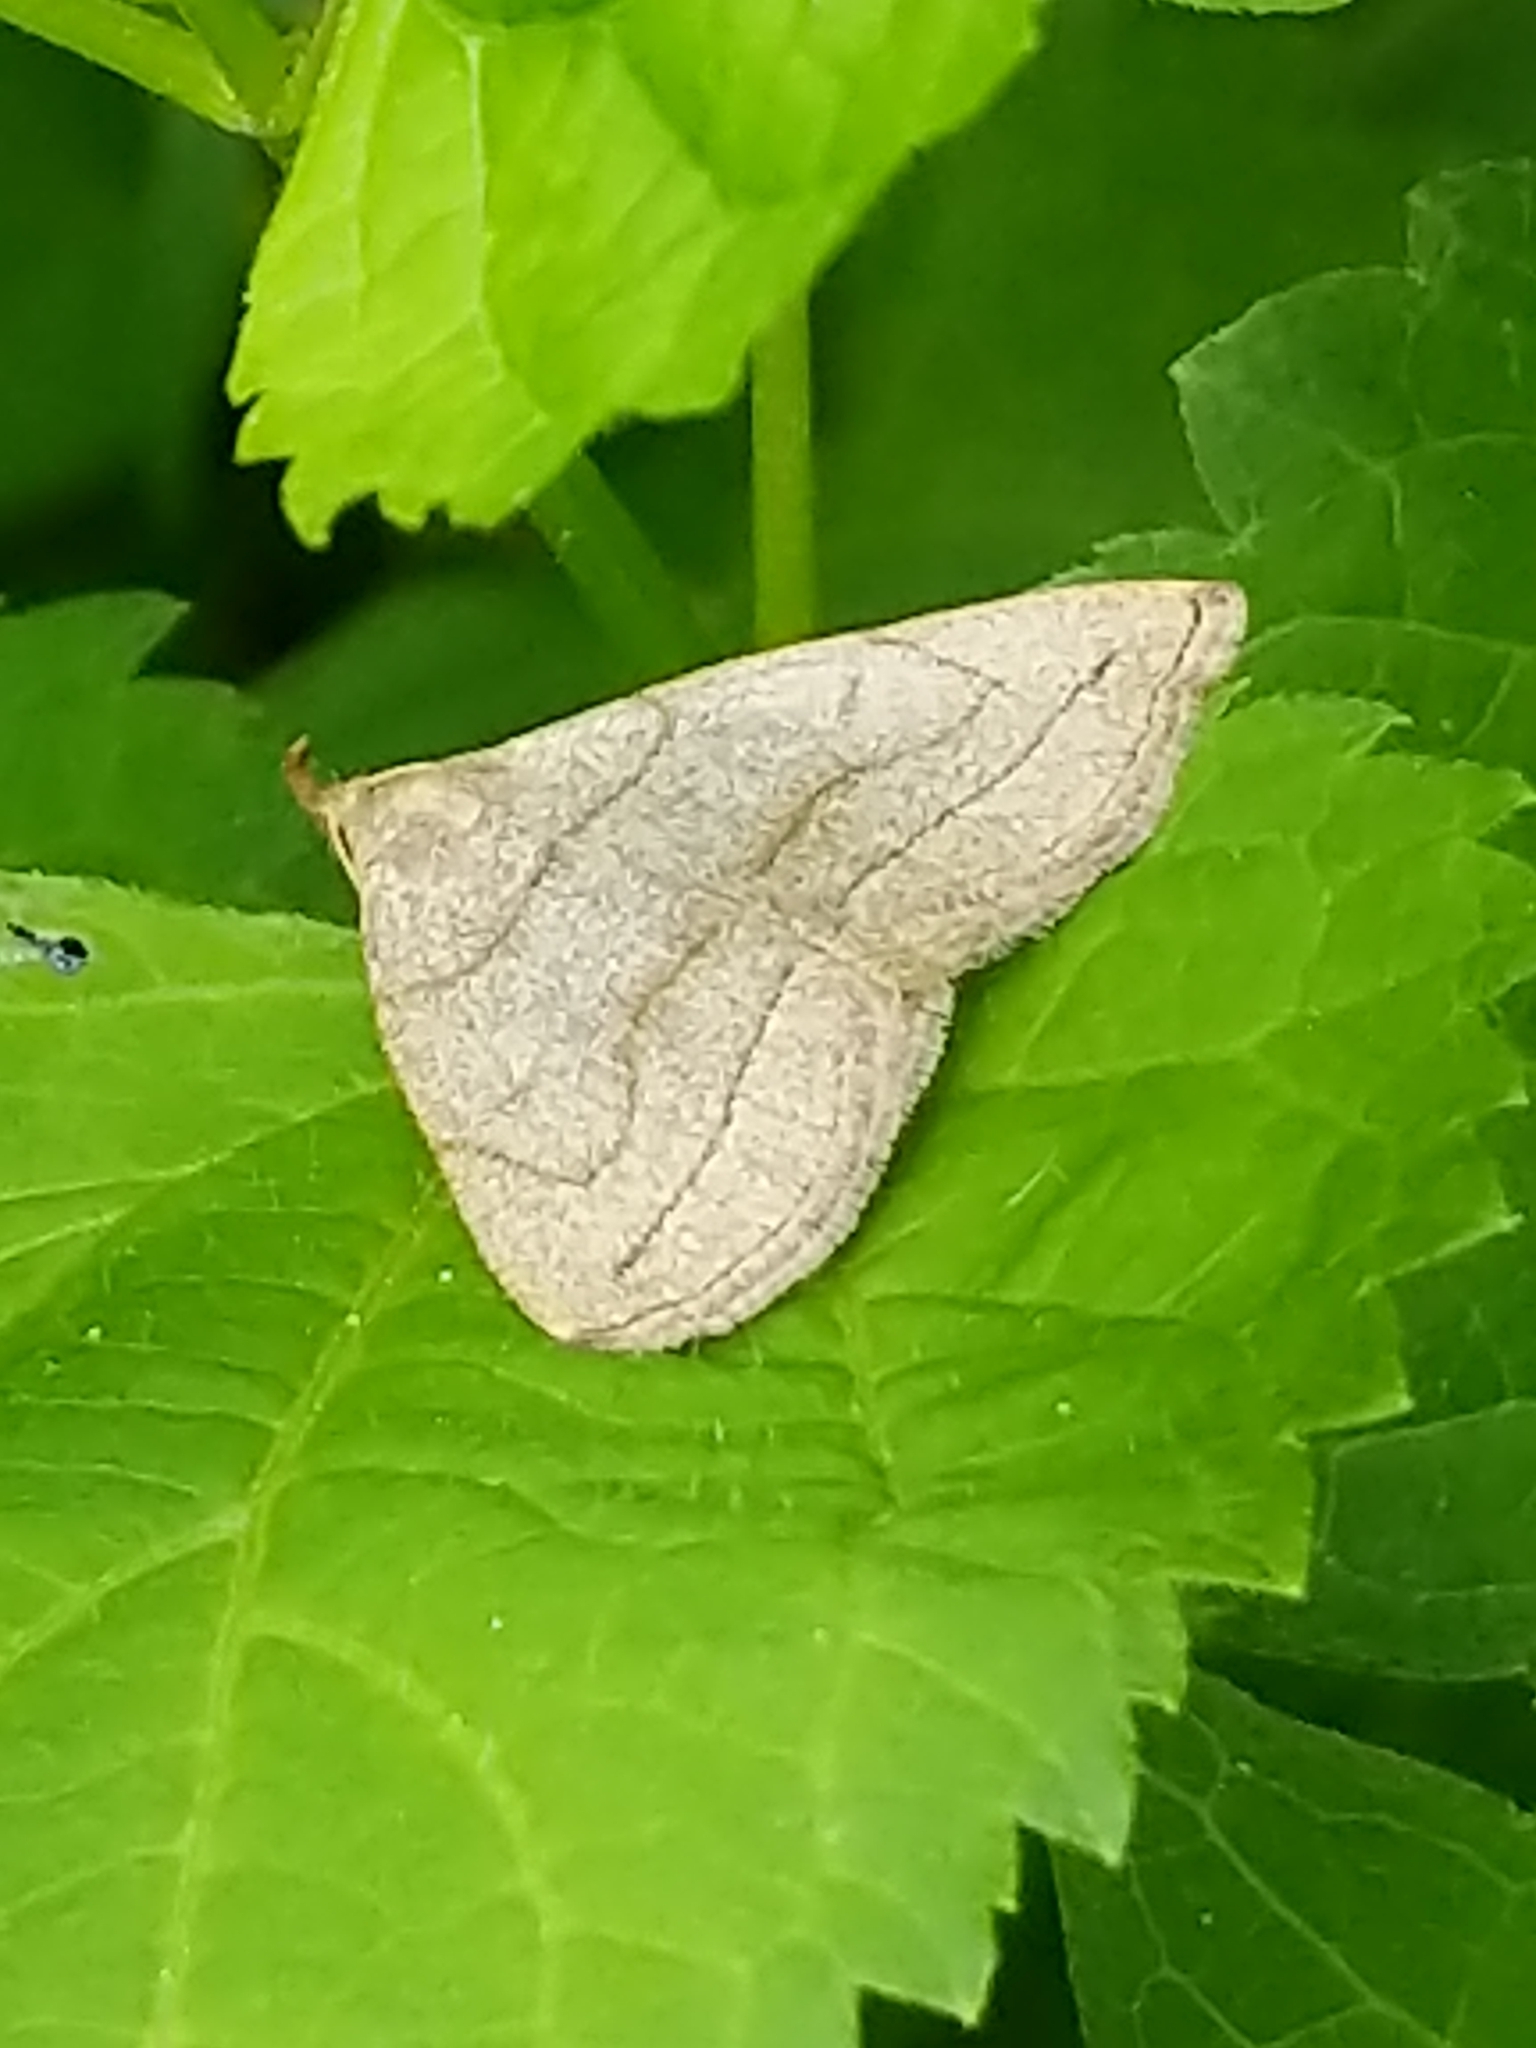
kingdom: Animalia
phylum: Arthropoda
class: Insecta
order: Lepidoptera
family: Erebidae
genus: Zanclognatha
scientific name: Zanclognatha pedipilalis
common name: Grayish fan-foot
